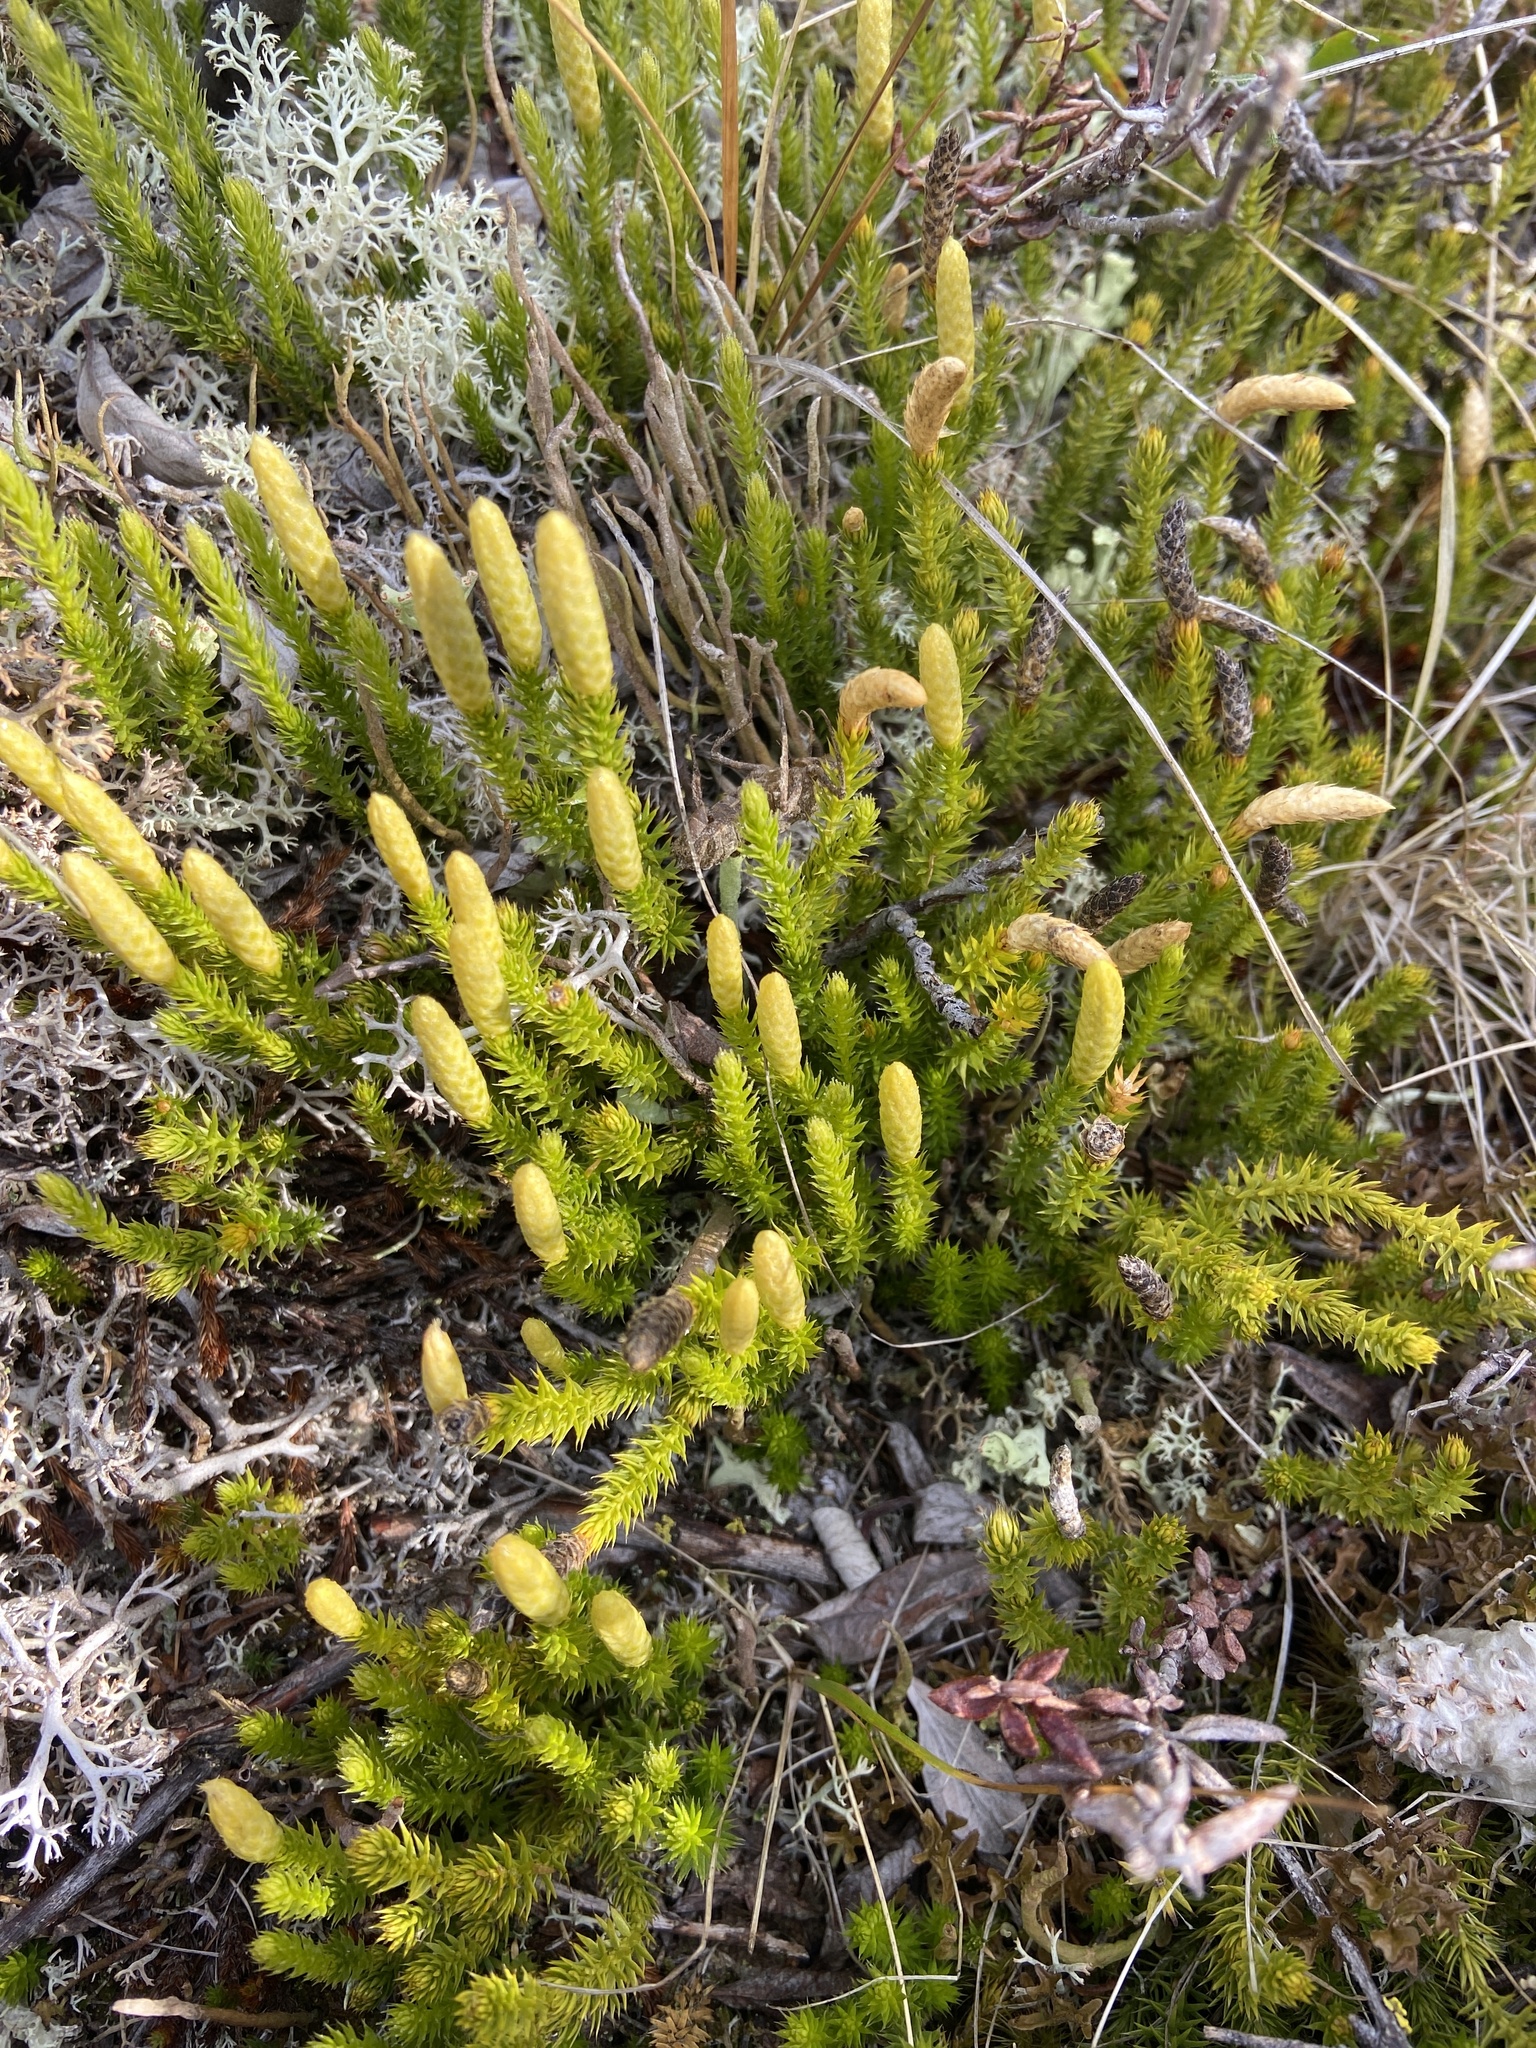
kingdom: Plantae
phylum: Tracheophyta
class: Lycopodiopsida
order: Lycopodiales
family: Lycopodiaceae
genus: Spinulum
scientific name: Spinulum annotinum
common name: Interrupted club-moss
